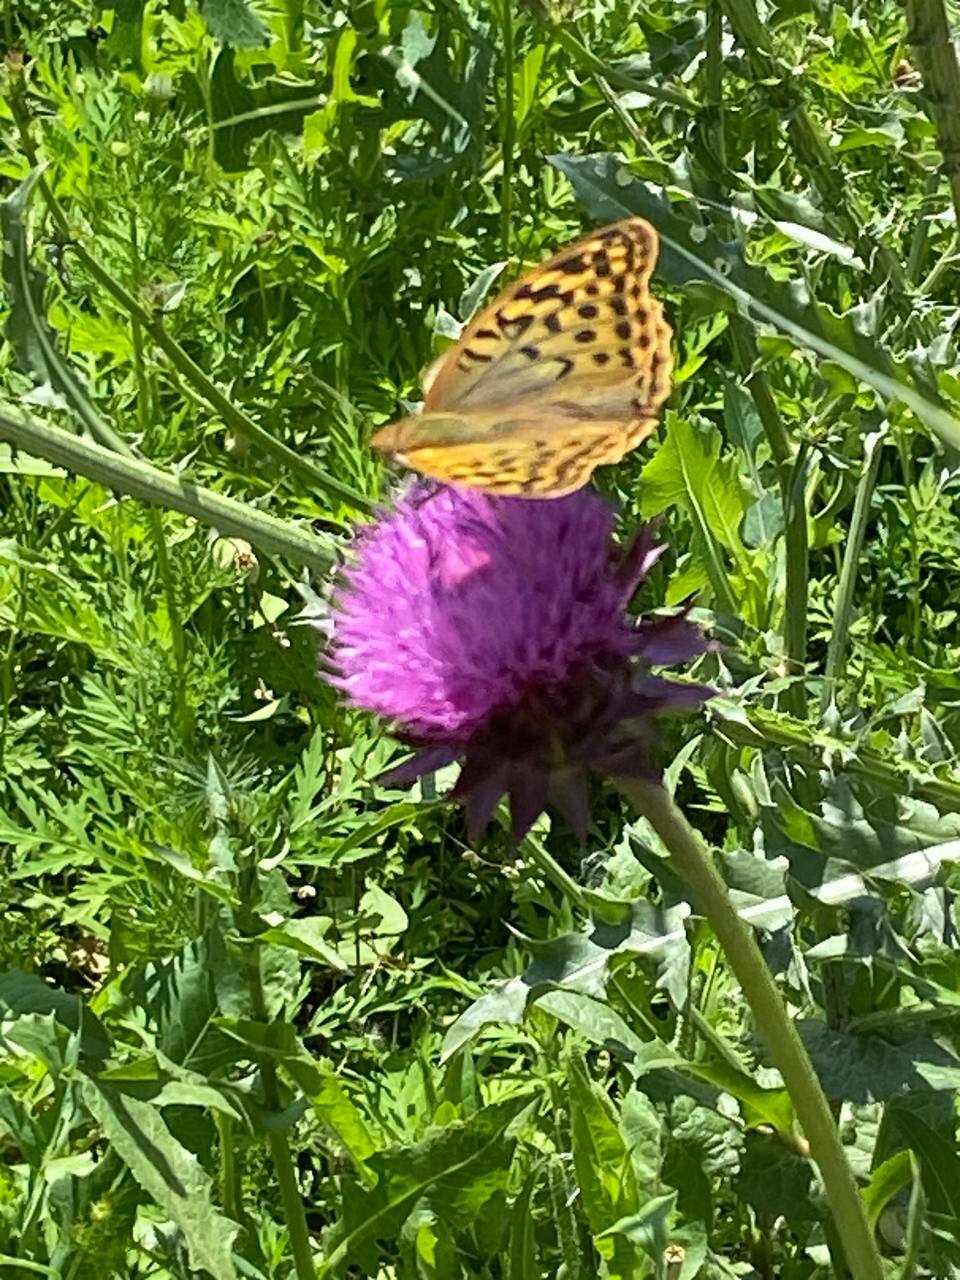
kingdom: Animalia
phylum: Arthropoda
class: Insecta
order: Lepidoptera
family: Nymphalidae
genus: Damora
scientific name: Damora pandora
